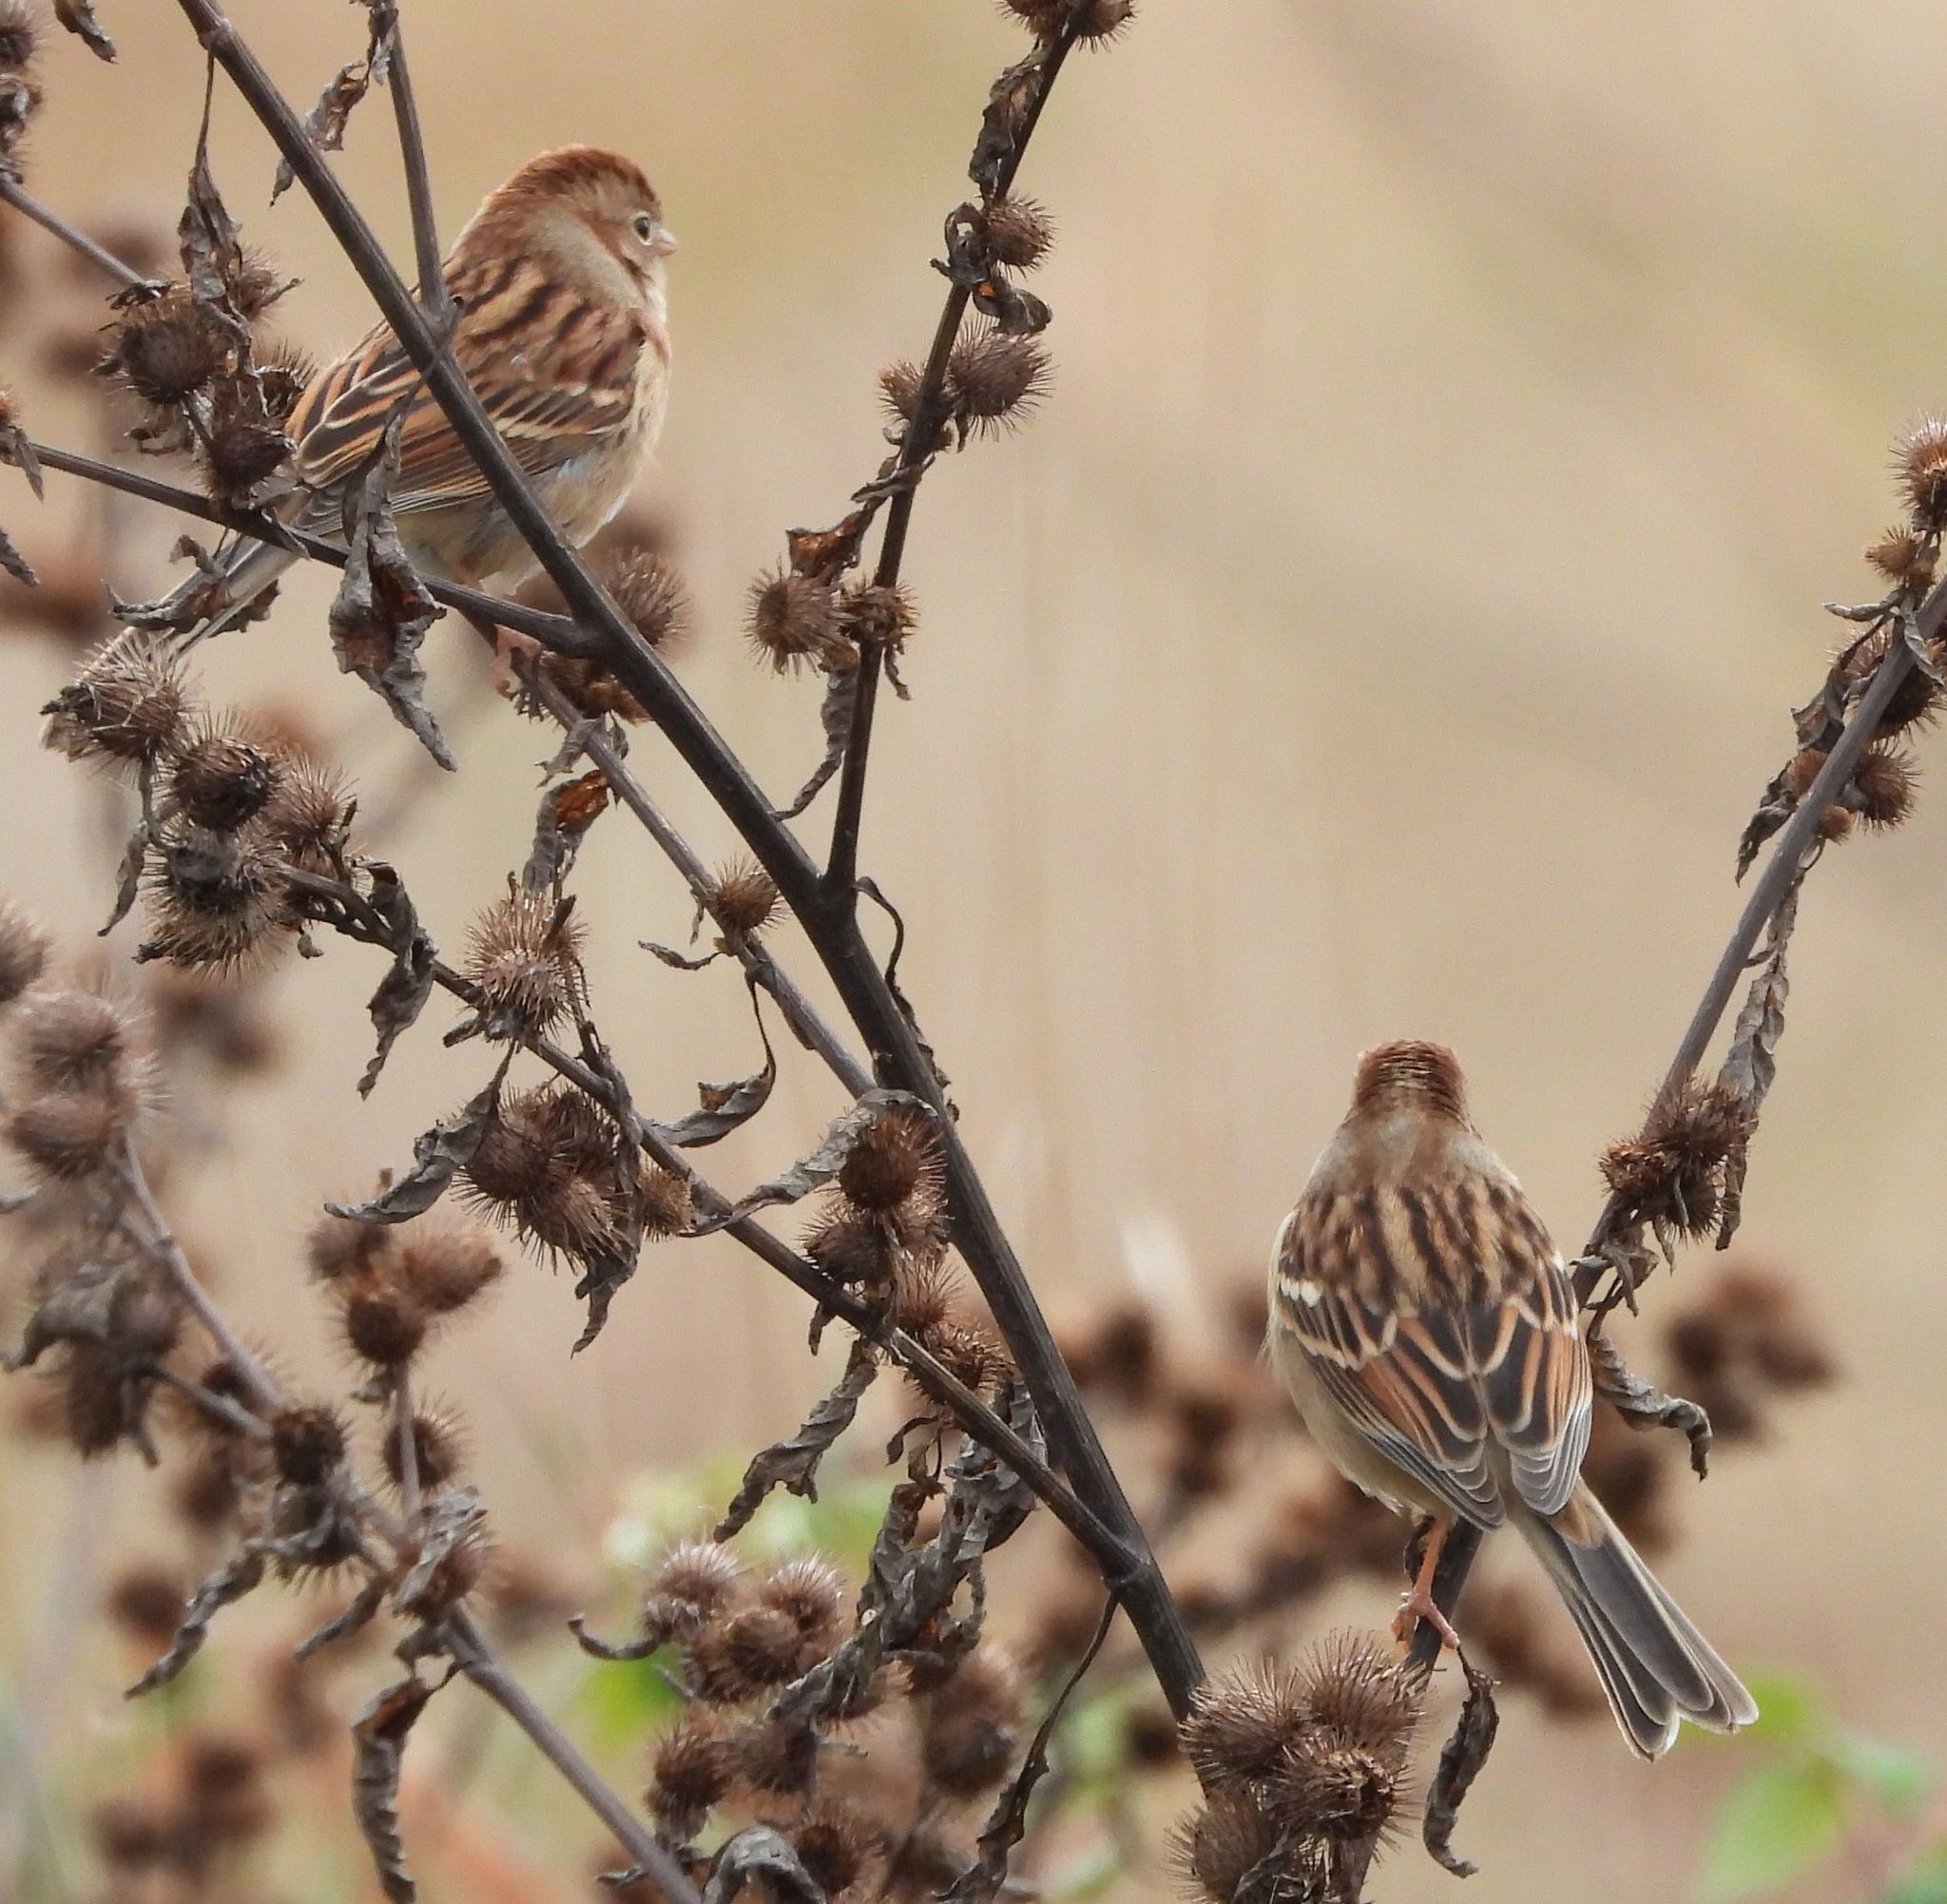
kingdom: Animalia
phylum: Chordata
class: Aves
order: Passeriformes
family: Passerellidae
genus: Spizella
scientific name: Spizella pusilla
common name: Field sparrow
